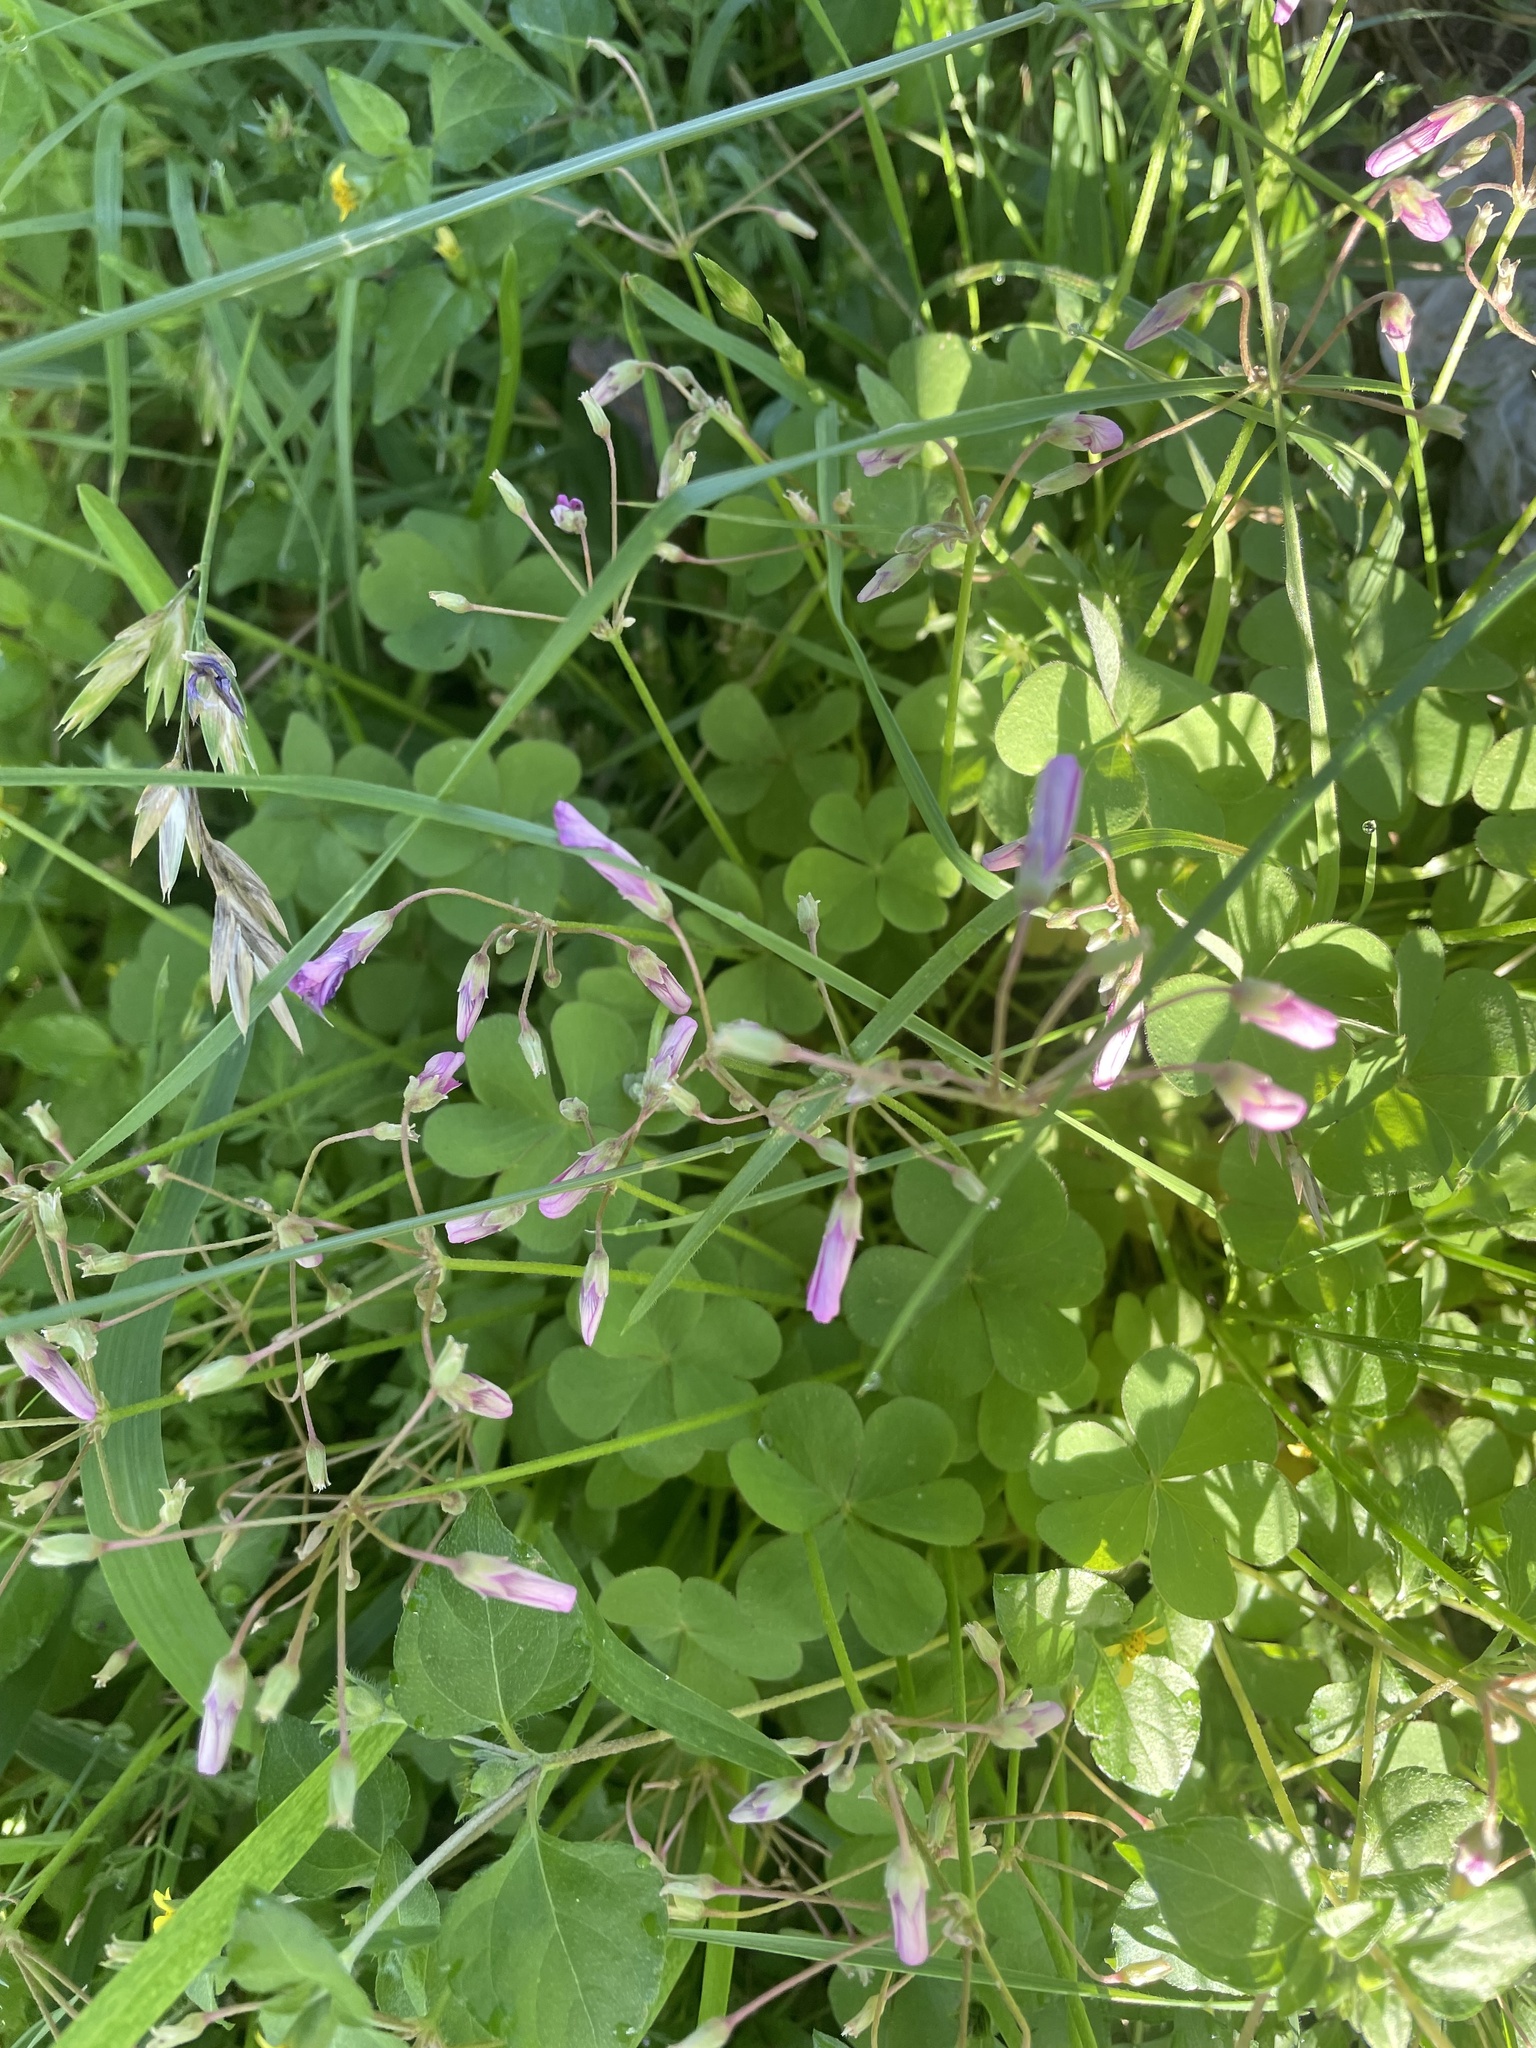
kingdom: Plantae
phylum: Tracheophyta
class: Magnoliopsida
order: Oxalidales
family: Oxalidaceae
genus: Oxalis
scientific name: Oxalis articulata
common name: Pink-sorrel
